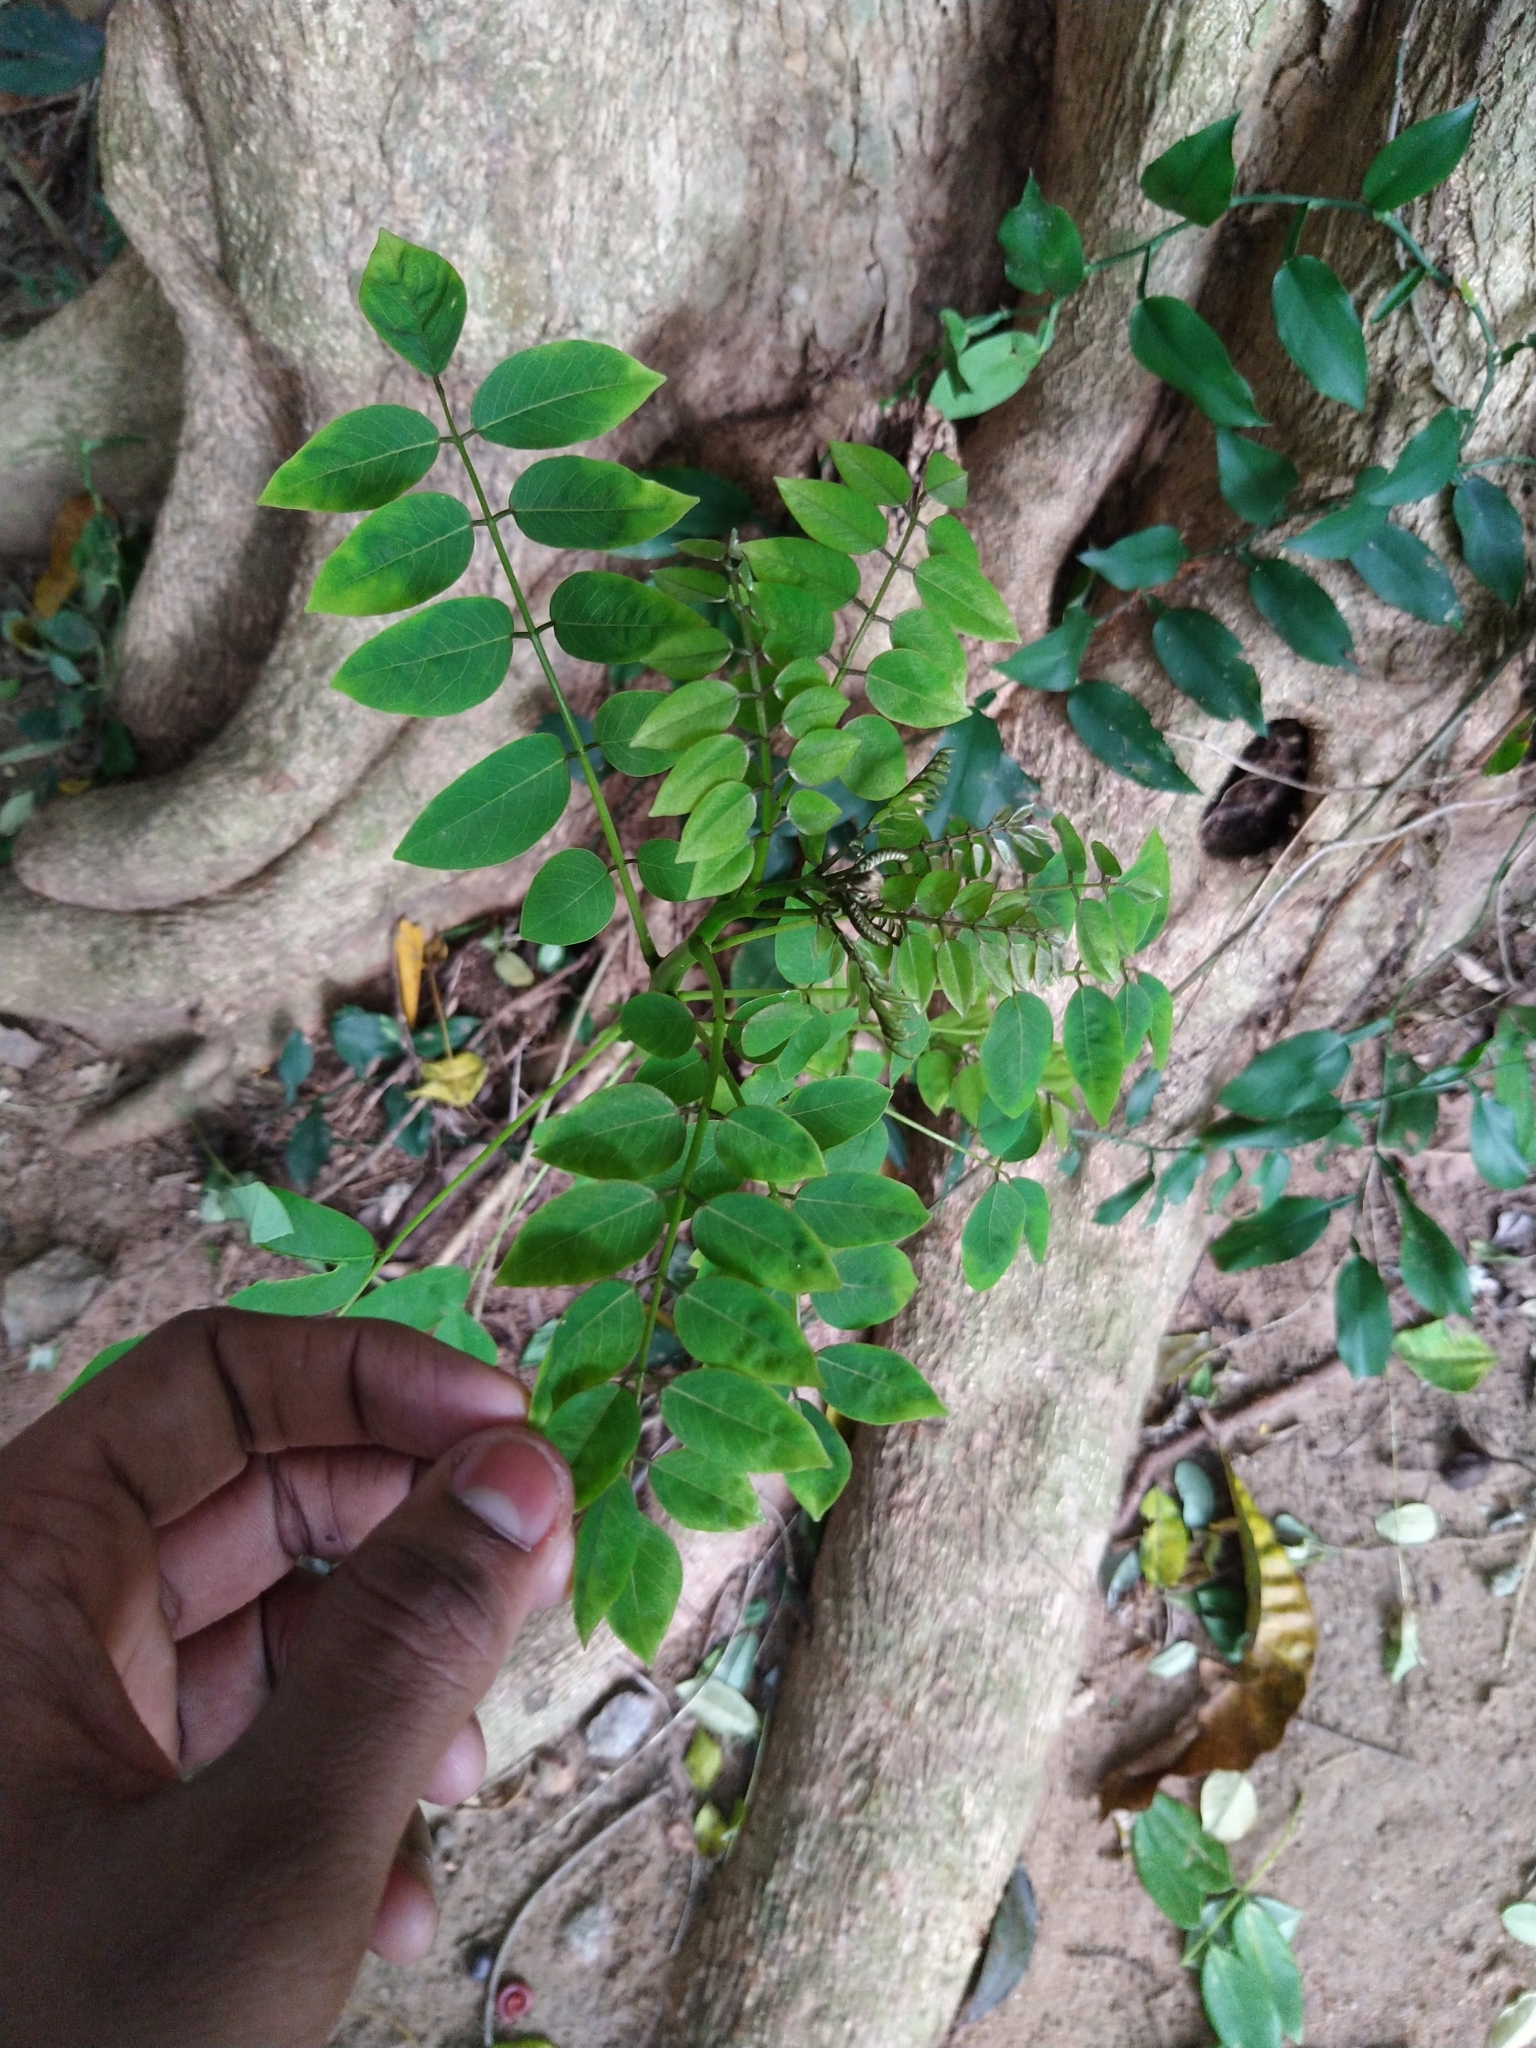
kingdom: Plantae
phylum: Tracheophyta
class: Magnoliopsida
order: Fabales
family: Fabaceae
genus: Gliricidia
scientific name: Gliricidia sepium
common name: Quickstick
